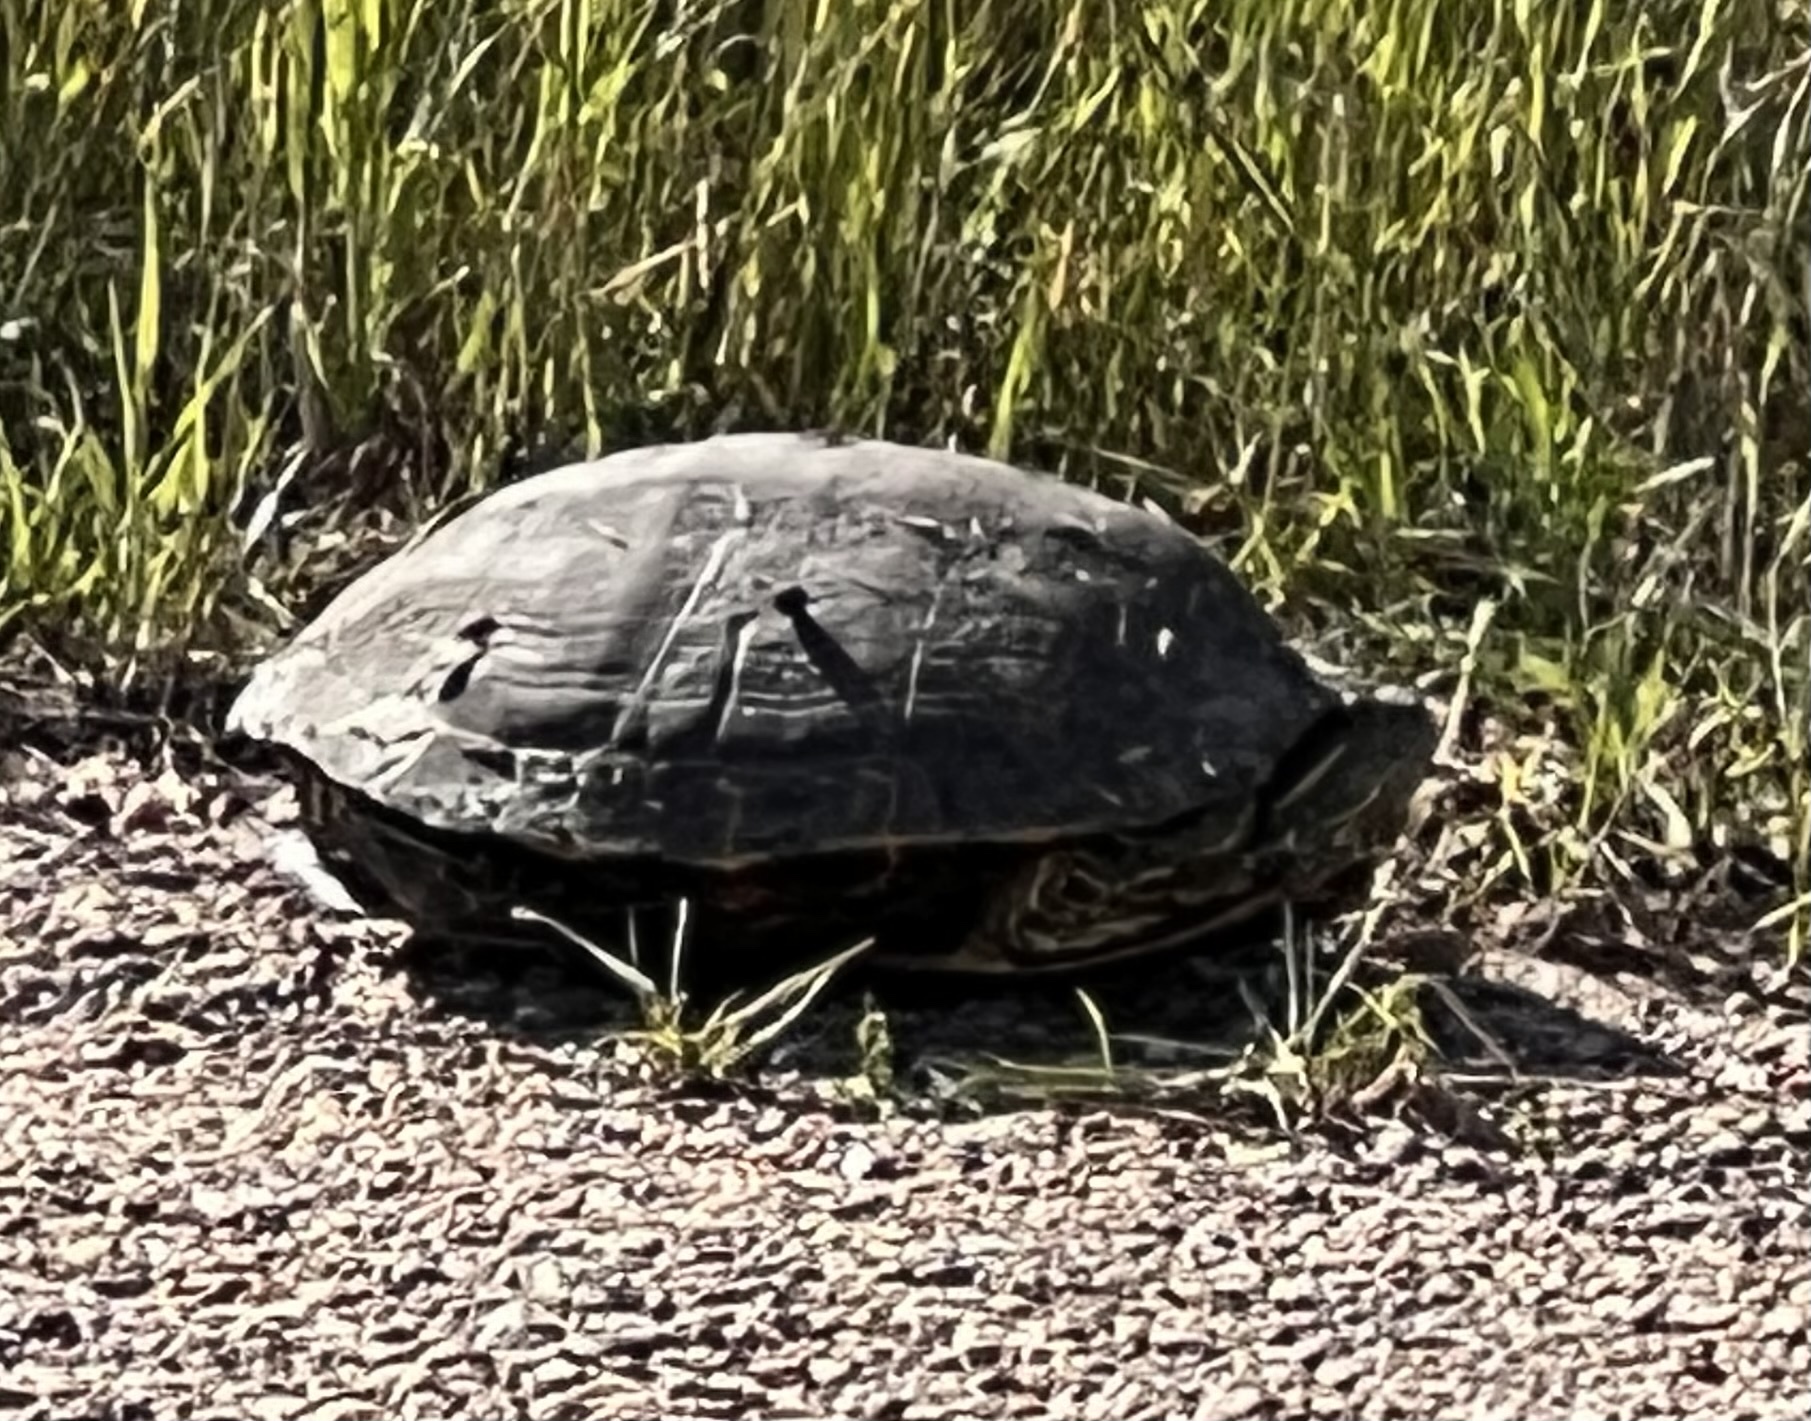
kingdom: Animalia
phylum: Chordata
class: Testudines
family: Emydidae
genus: Trachemys
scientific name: Trachemys scripta
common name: Slider
